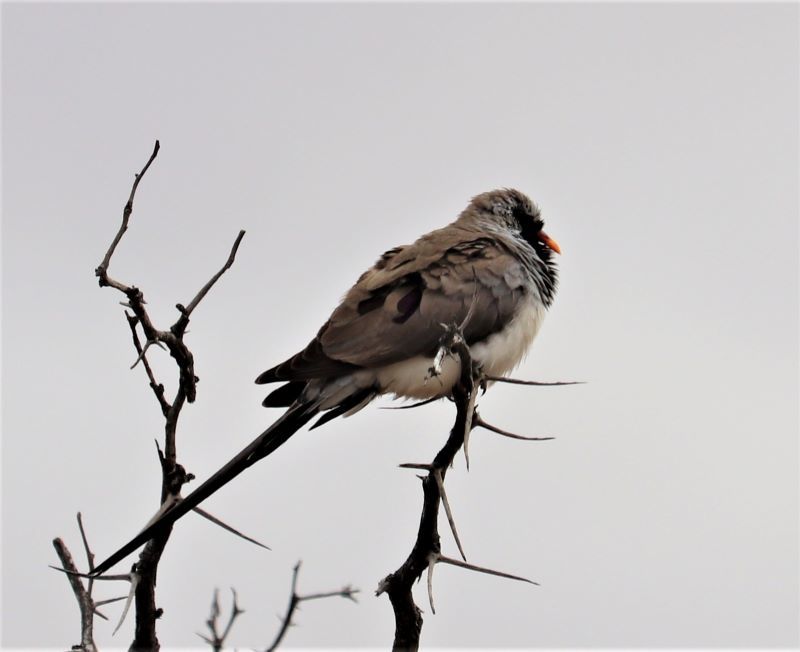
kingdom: Animalia
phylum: Chordata
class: Aves
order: Columbiformes
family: Columbidae
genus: Oena
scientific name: Oena capensis
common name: Namaqua dove
